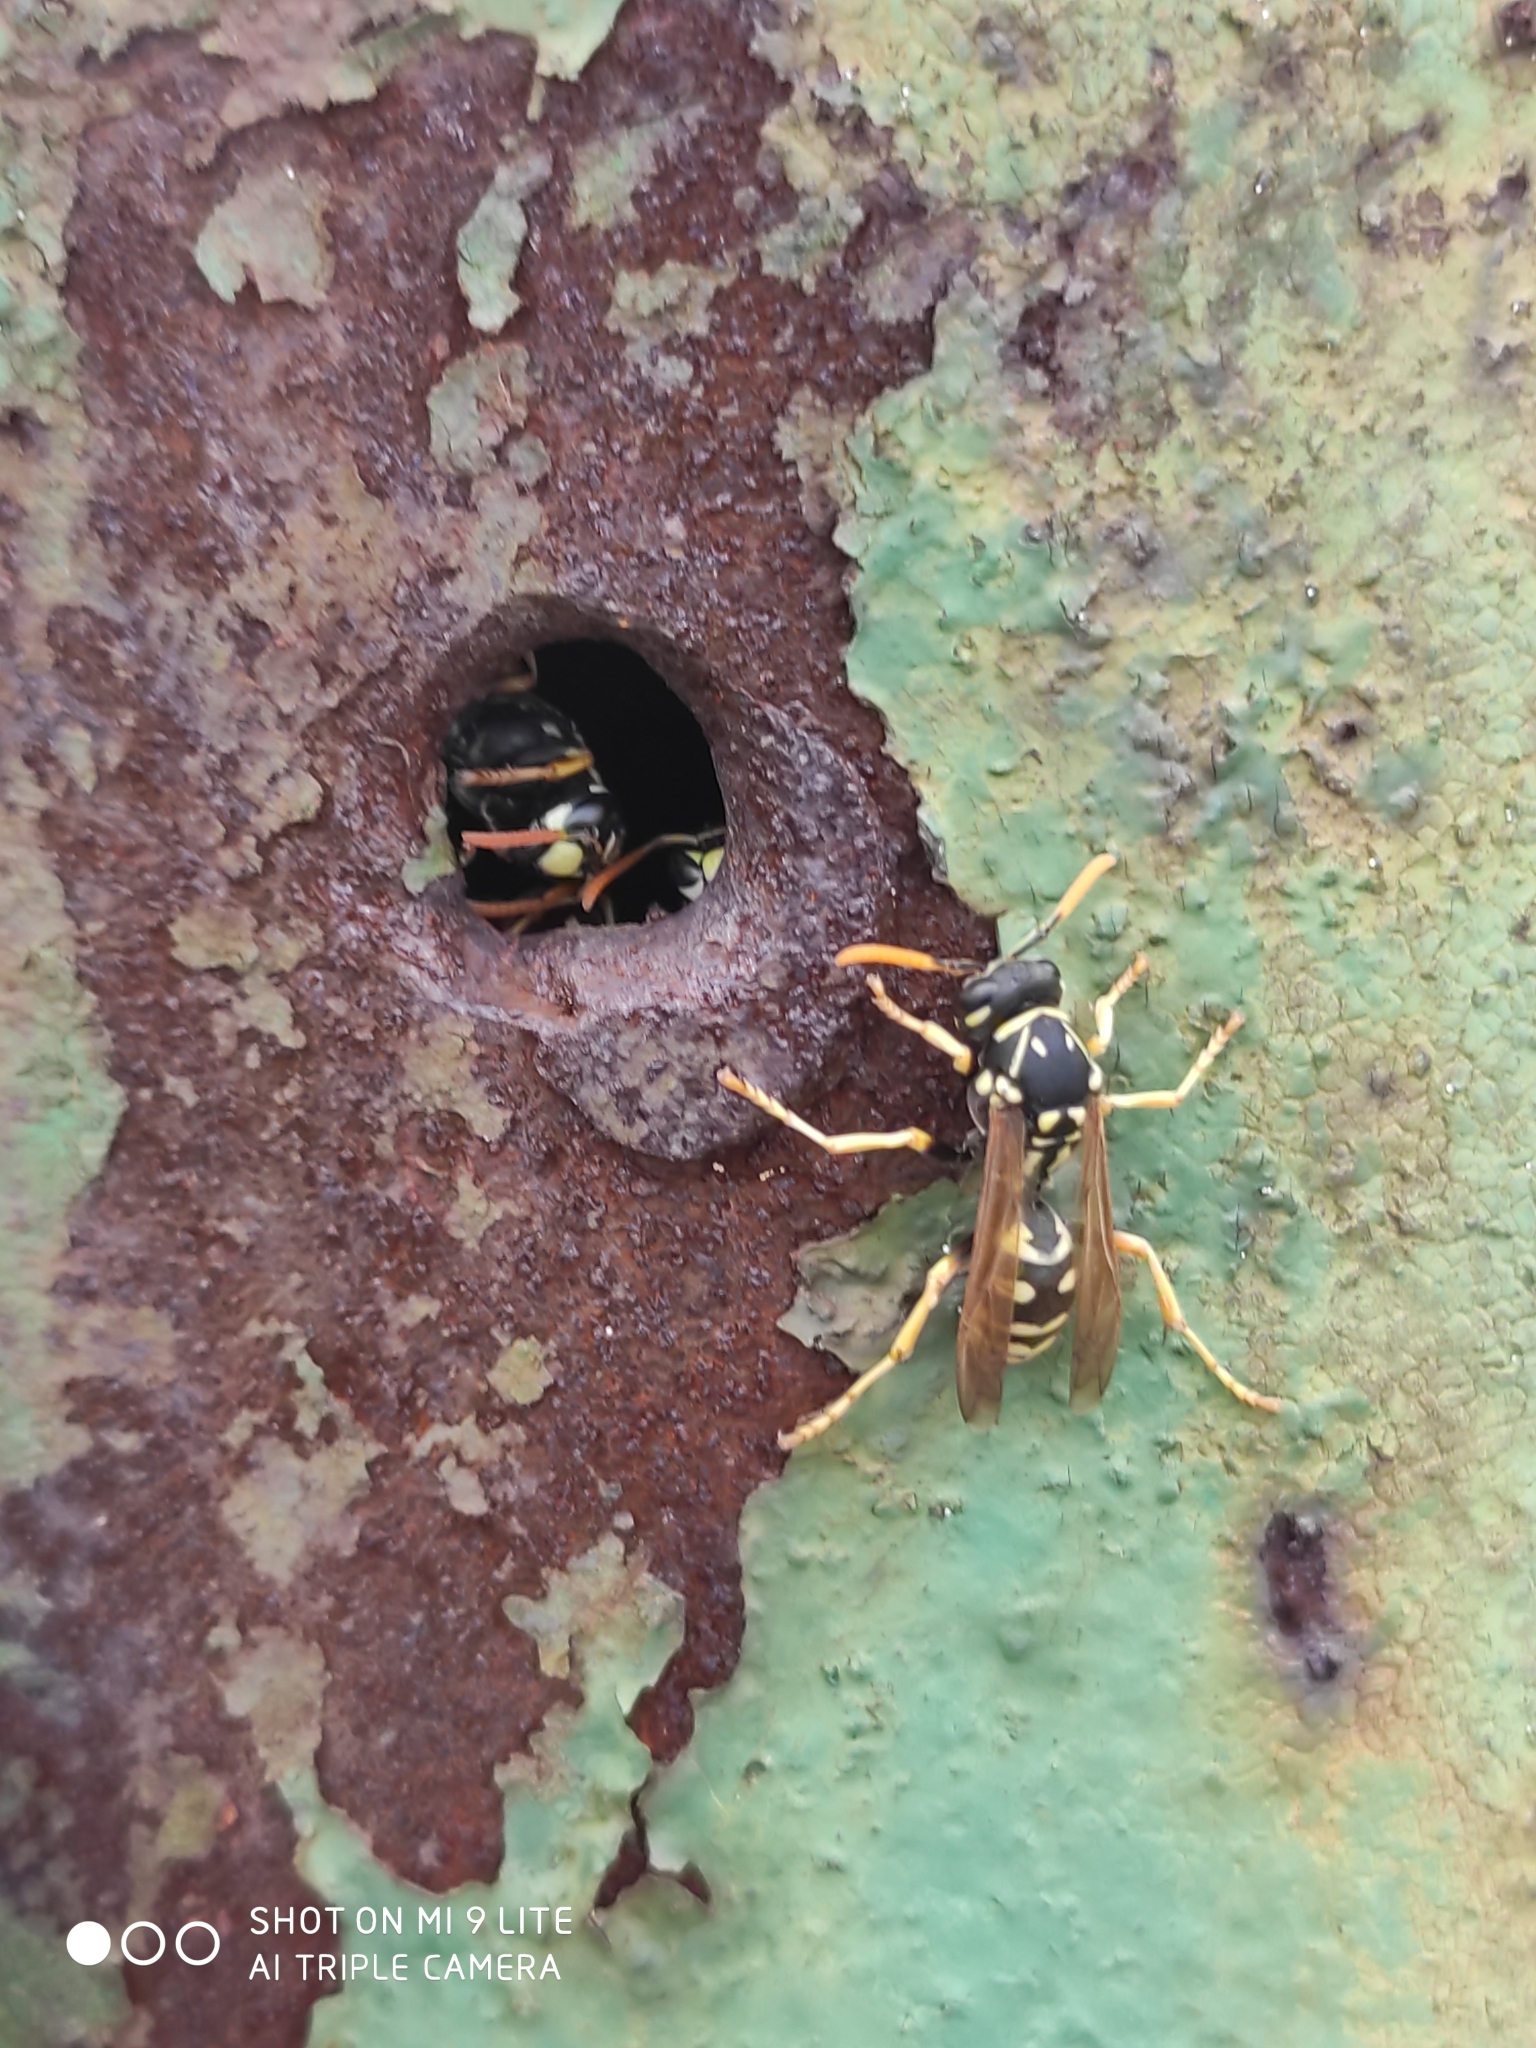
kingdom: Animalia
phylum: Arthropoda
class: Insecta
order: Hymenoptera
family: Eumenidae
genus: Polistes
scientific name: Polistes dominula
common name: Paper wasp
